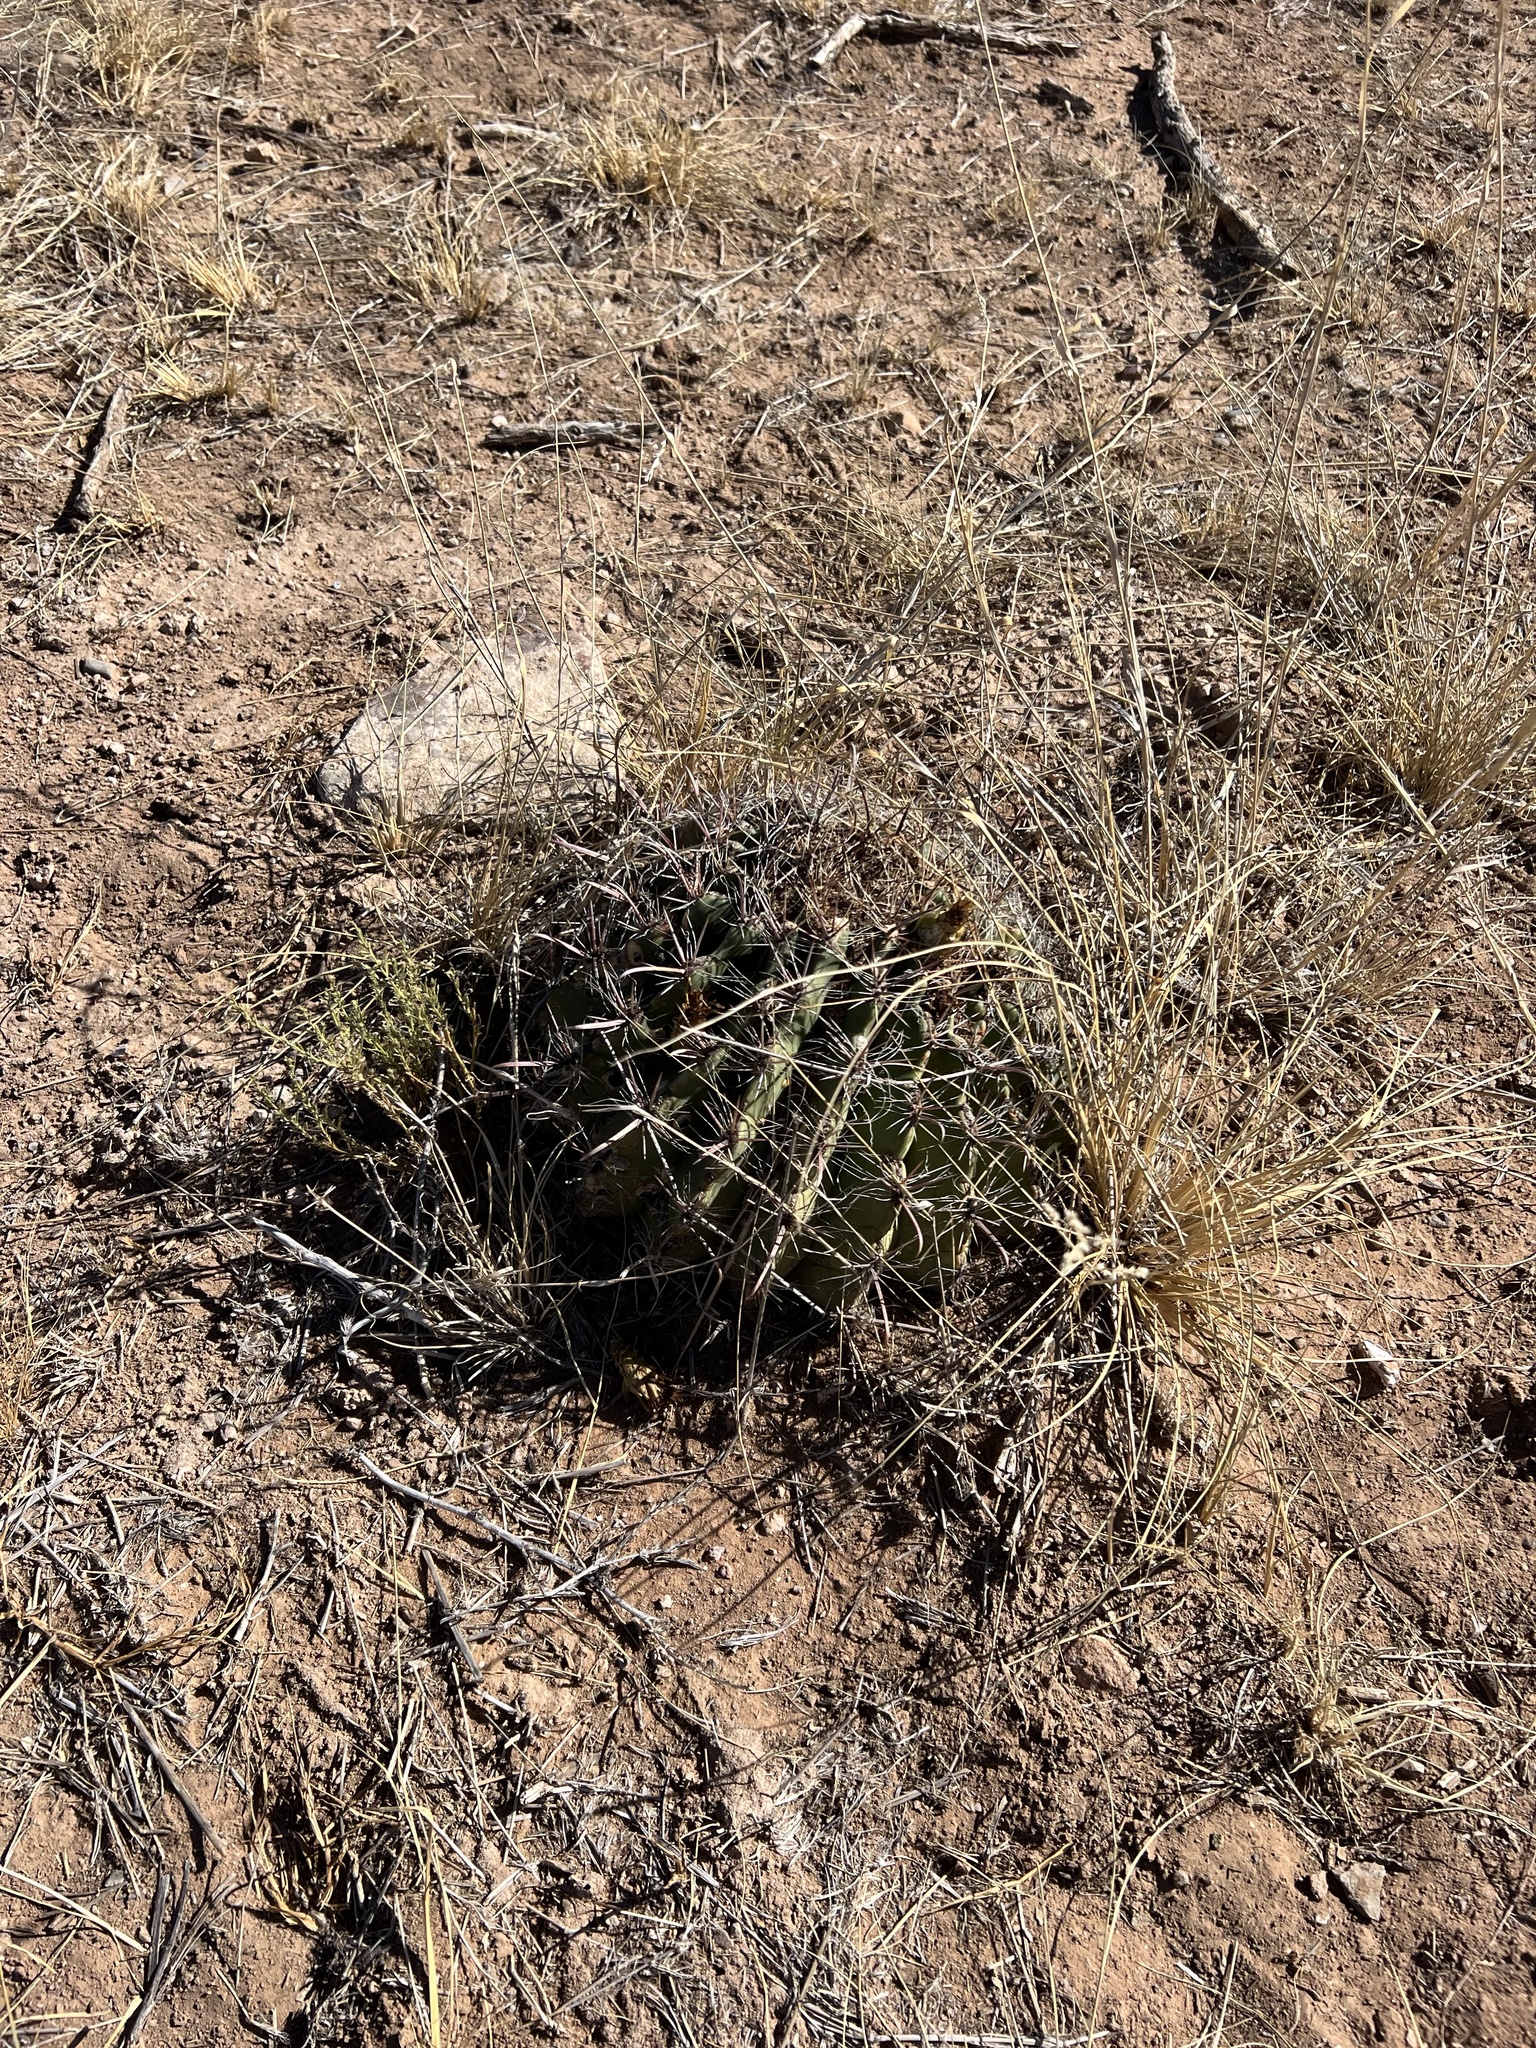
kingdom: Plantae
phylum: Tracheophyta
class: Magnoliopsida
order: Caryophyllales
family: Cactaceae
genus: Ferocactus
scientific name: Ferocactus wislizeni
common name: Candy barrel cactus
